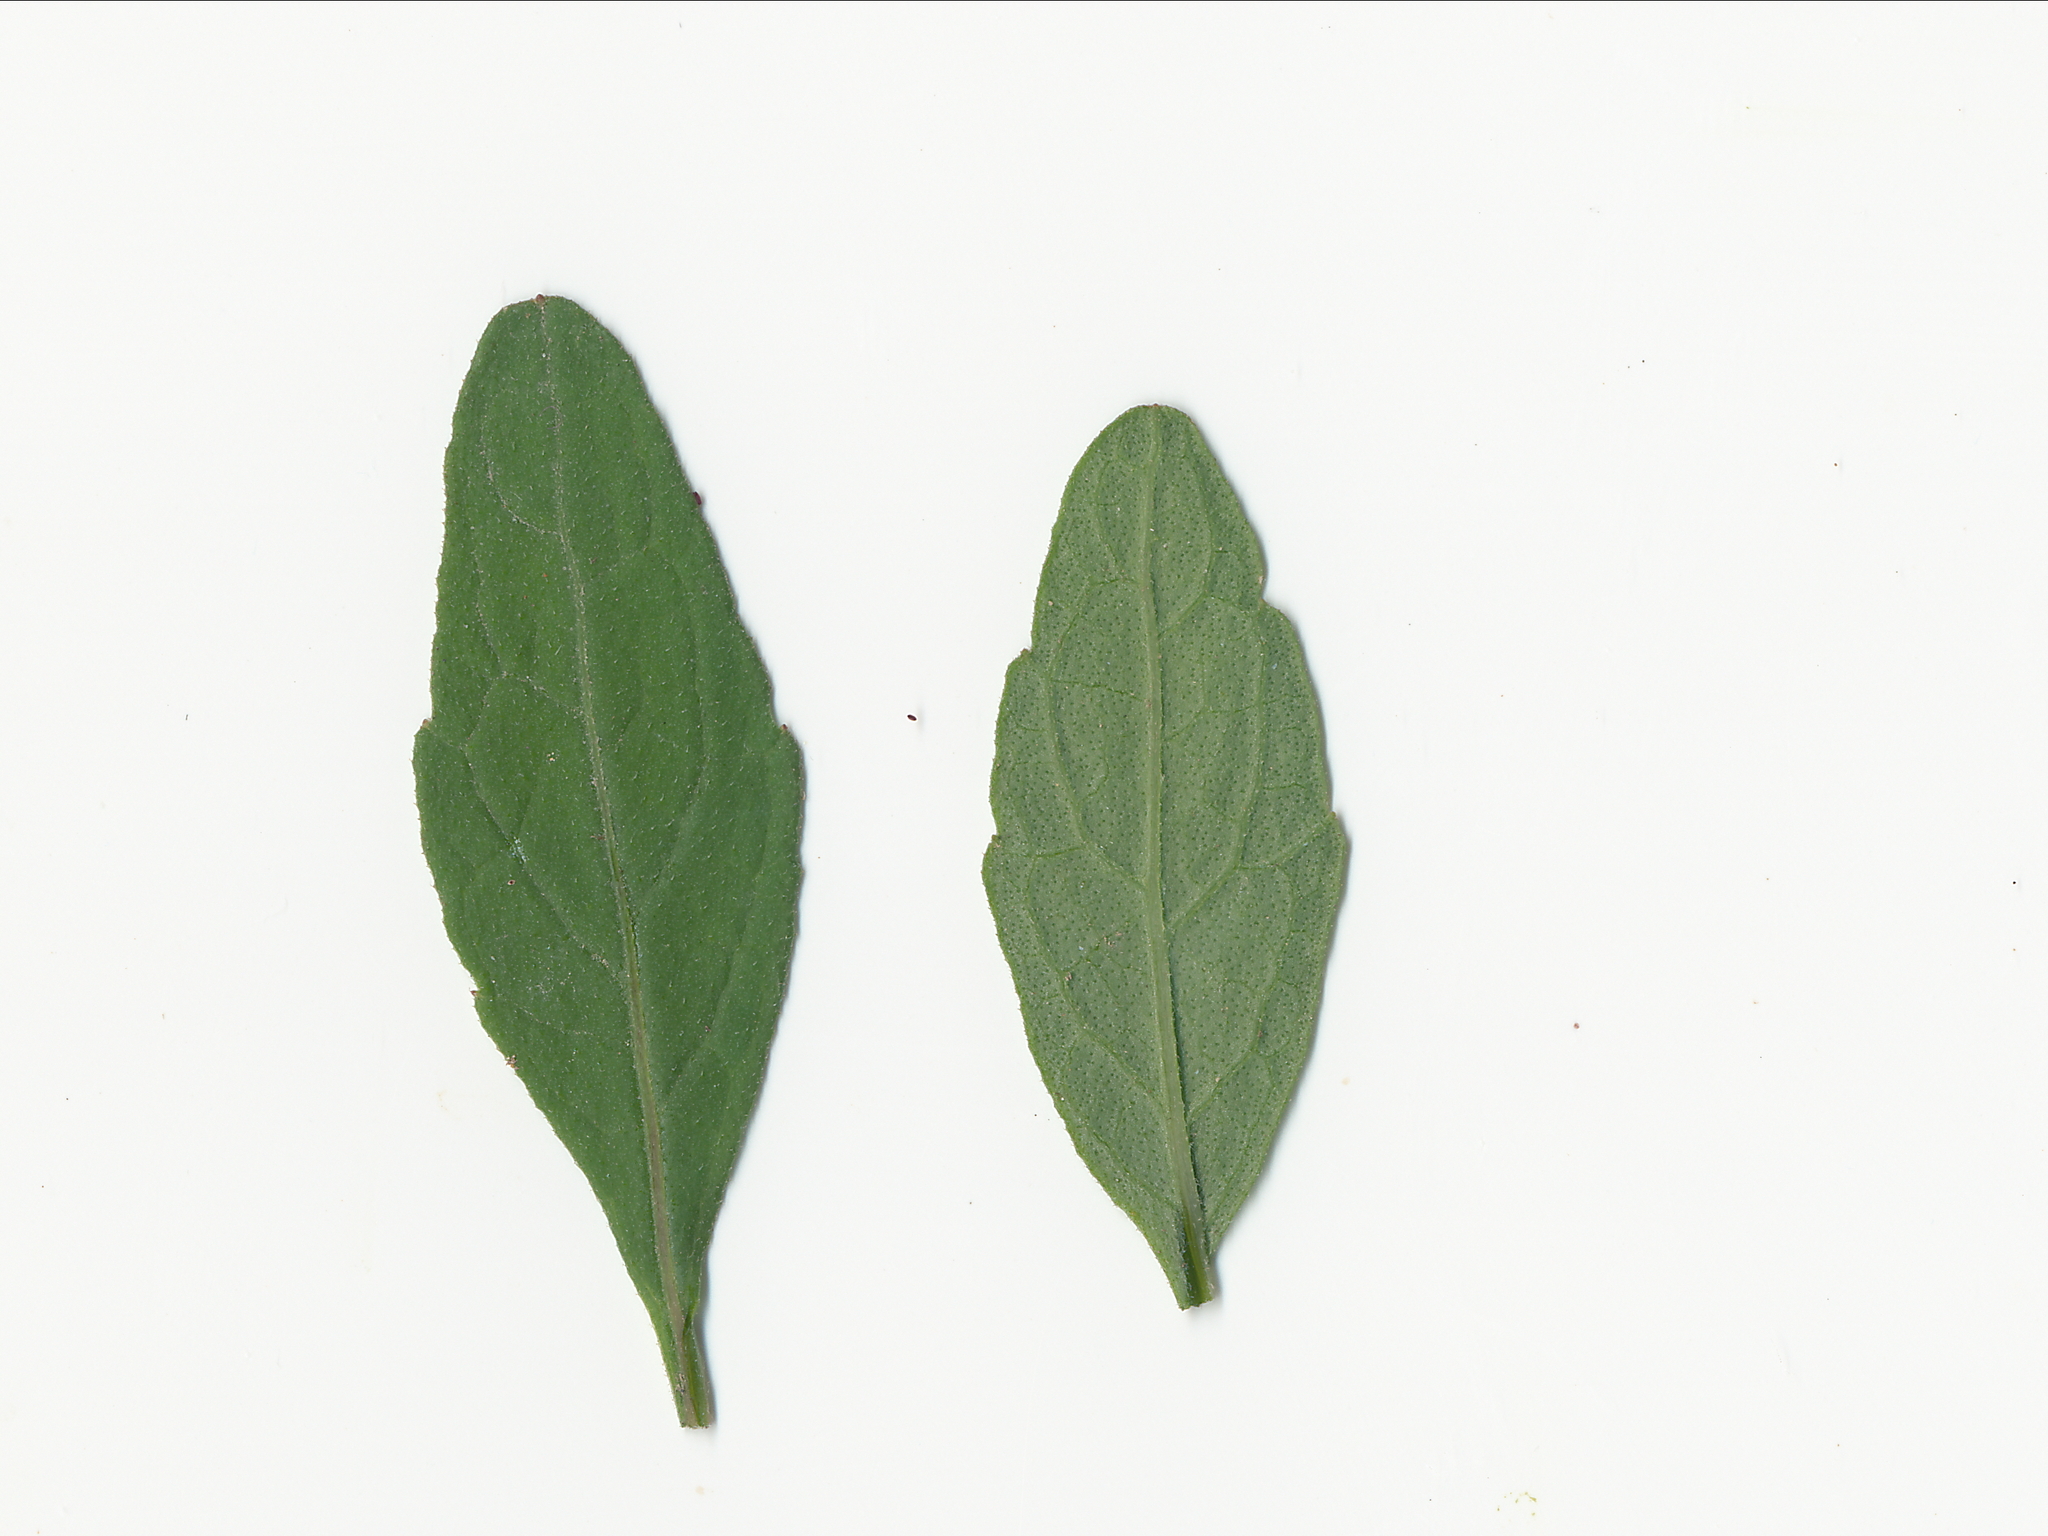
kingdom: Plantae
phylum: Tracheophyta
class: Magnoliopsida
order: Asterales
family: Asteraceae
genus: Cyanthillium
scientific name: Cyanthillium cinereum
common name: Little ironweed
